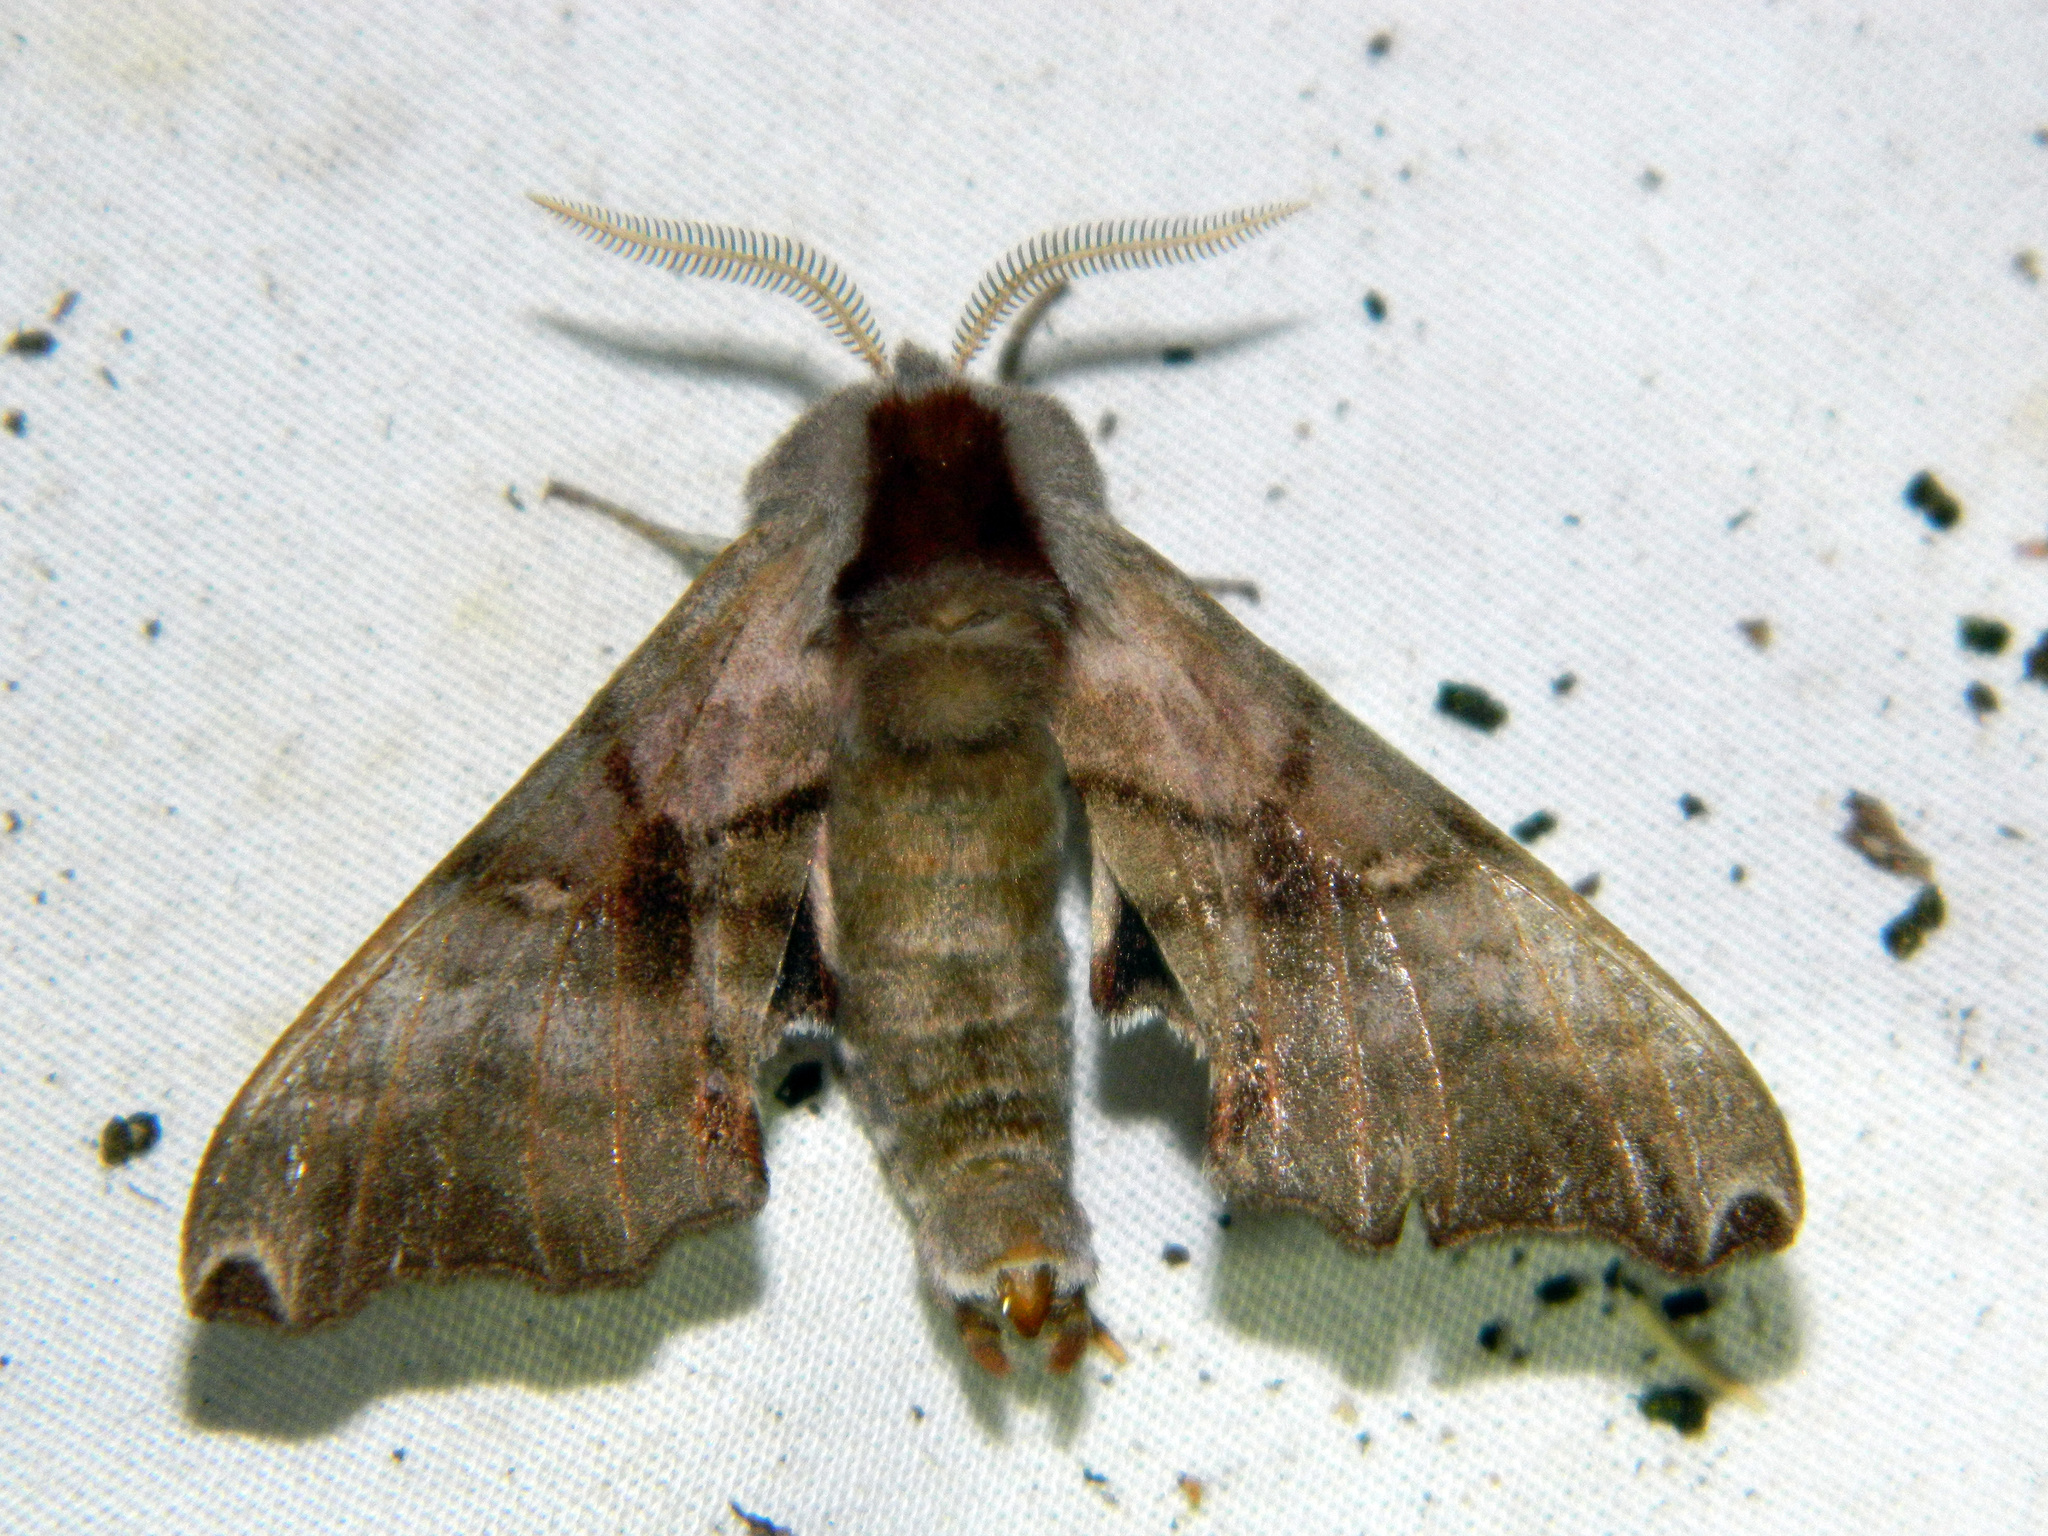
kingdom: Animalia
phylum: Arthropoda
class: Insecta
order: Lepidoptera
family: Sphingidae
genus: Smerinthus
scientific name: Smerinthus jamaicensis
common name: Twin spotted sphinx
